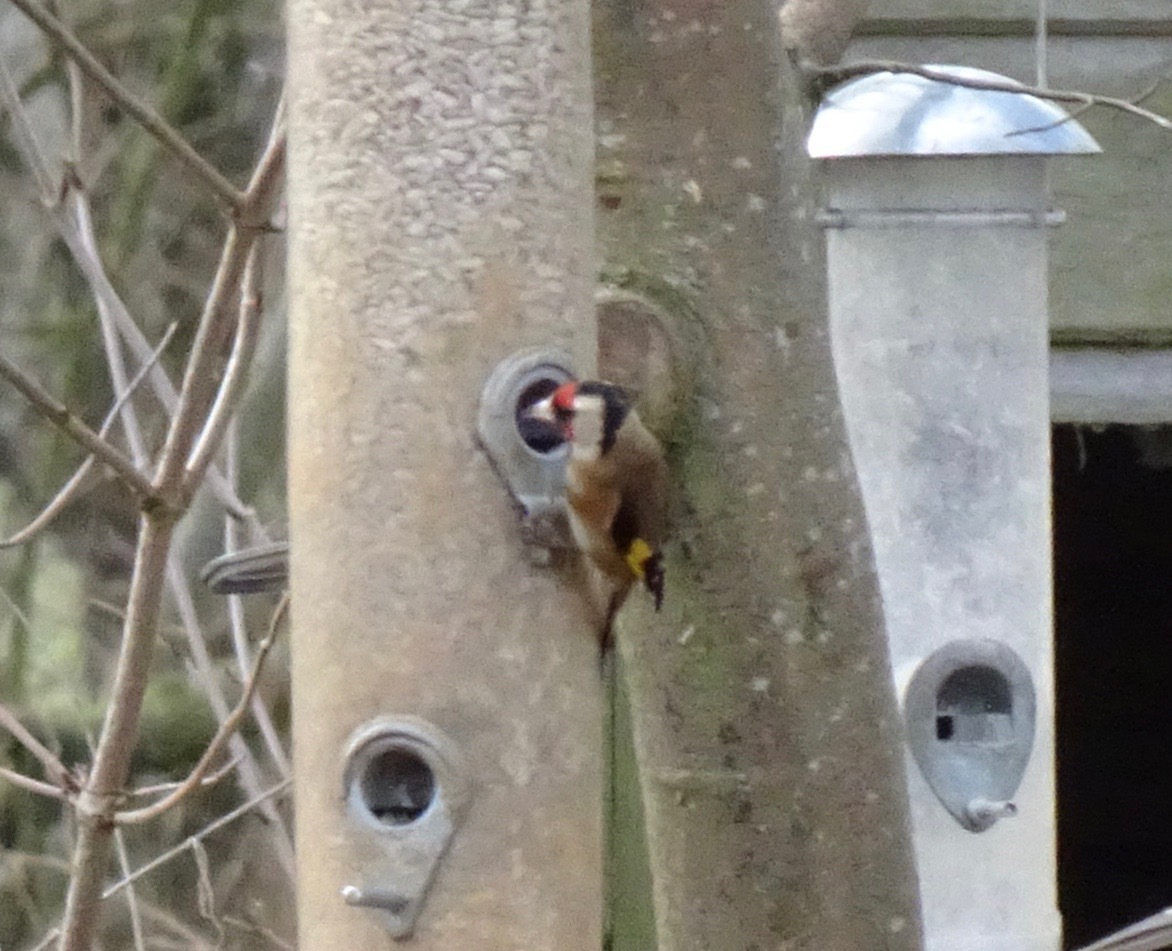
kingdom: Animalia
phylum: Chordata
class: Aves
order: Passeriformes
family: Fringillidae
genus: Carduelis
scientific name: Carduelis carduelis
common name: European goldfinch
